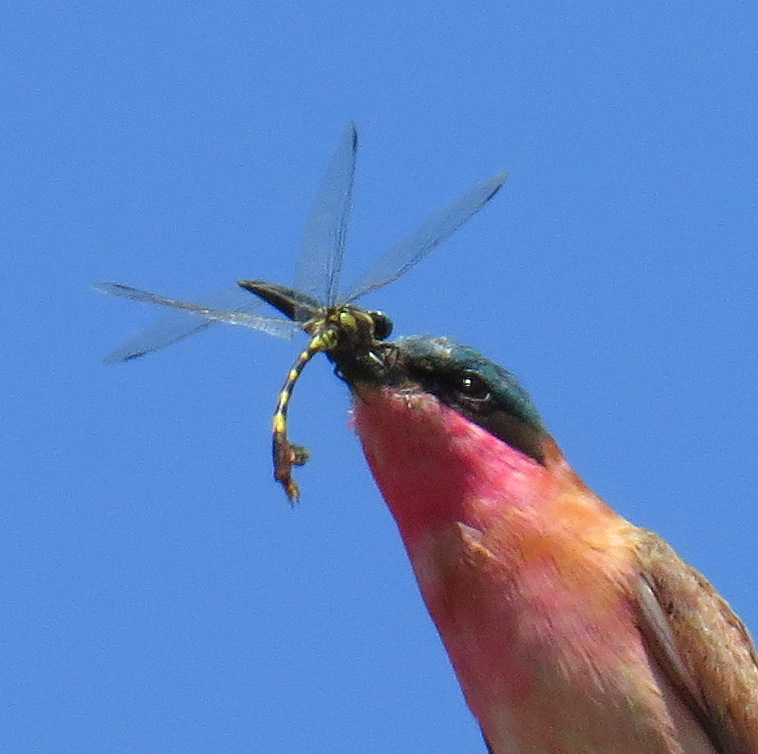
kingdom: Animalia
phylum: Arthropoda
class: Insecta
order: Odonata
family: Gomphidae
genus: Phyllogomphus
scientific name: Phyllogomphus selysi
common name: Bold leaftail
